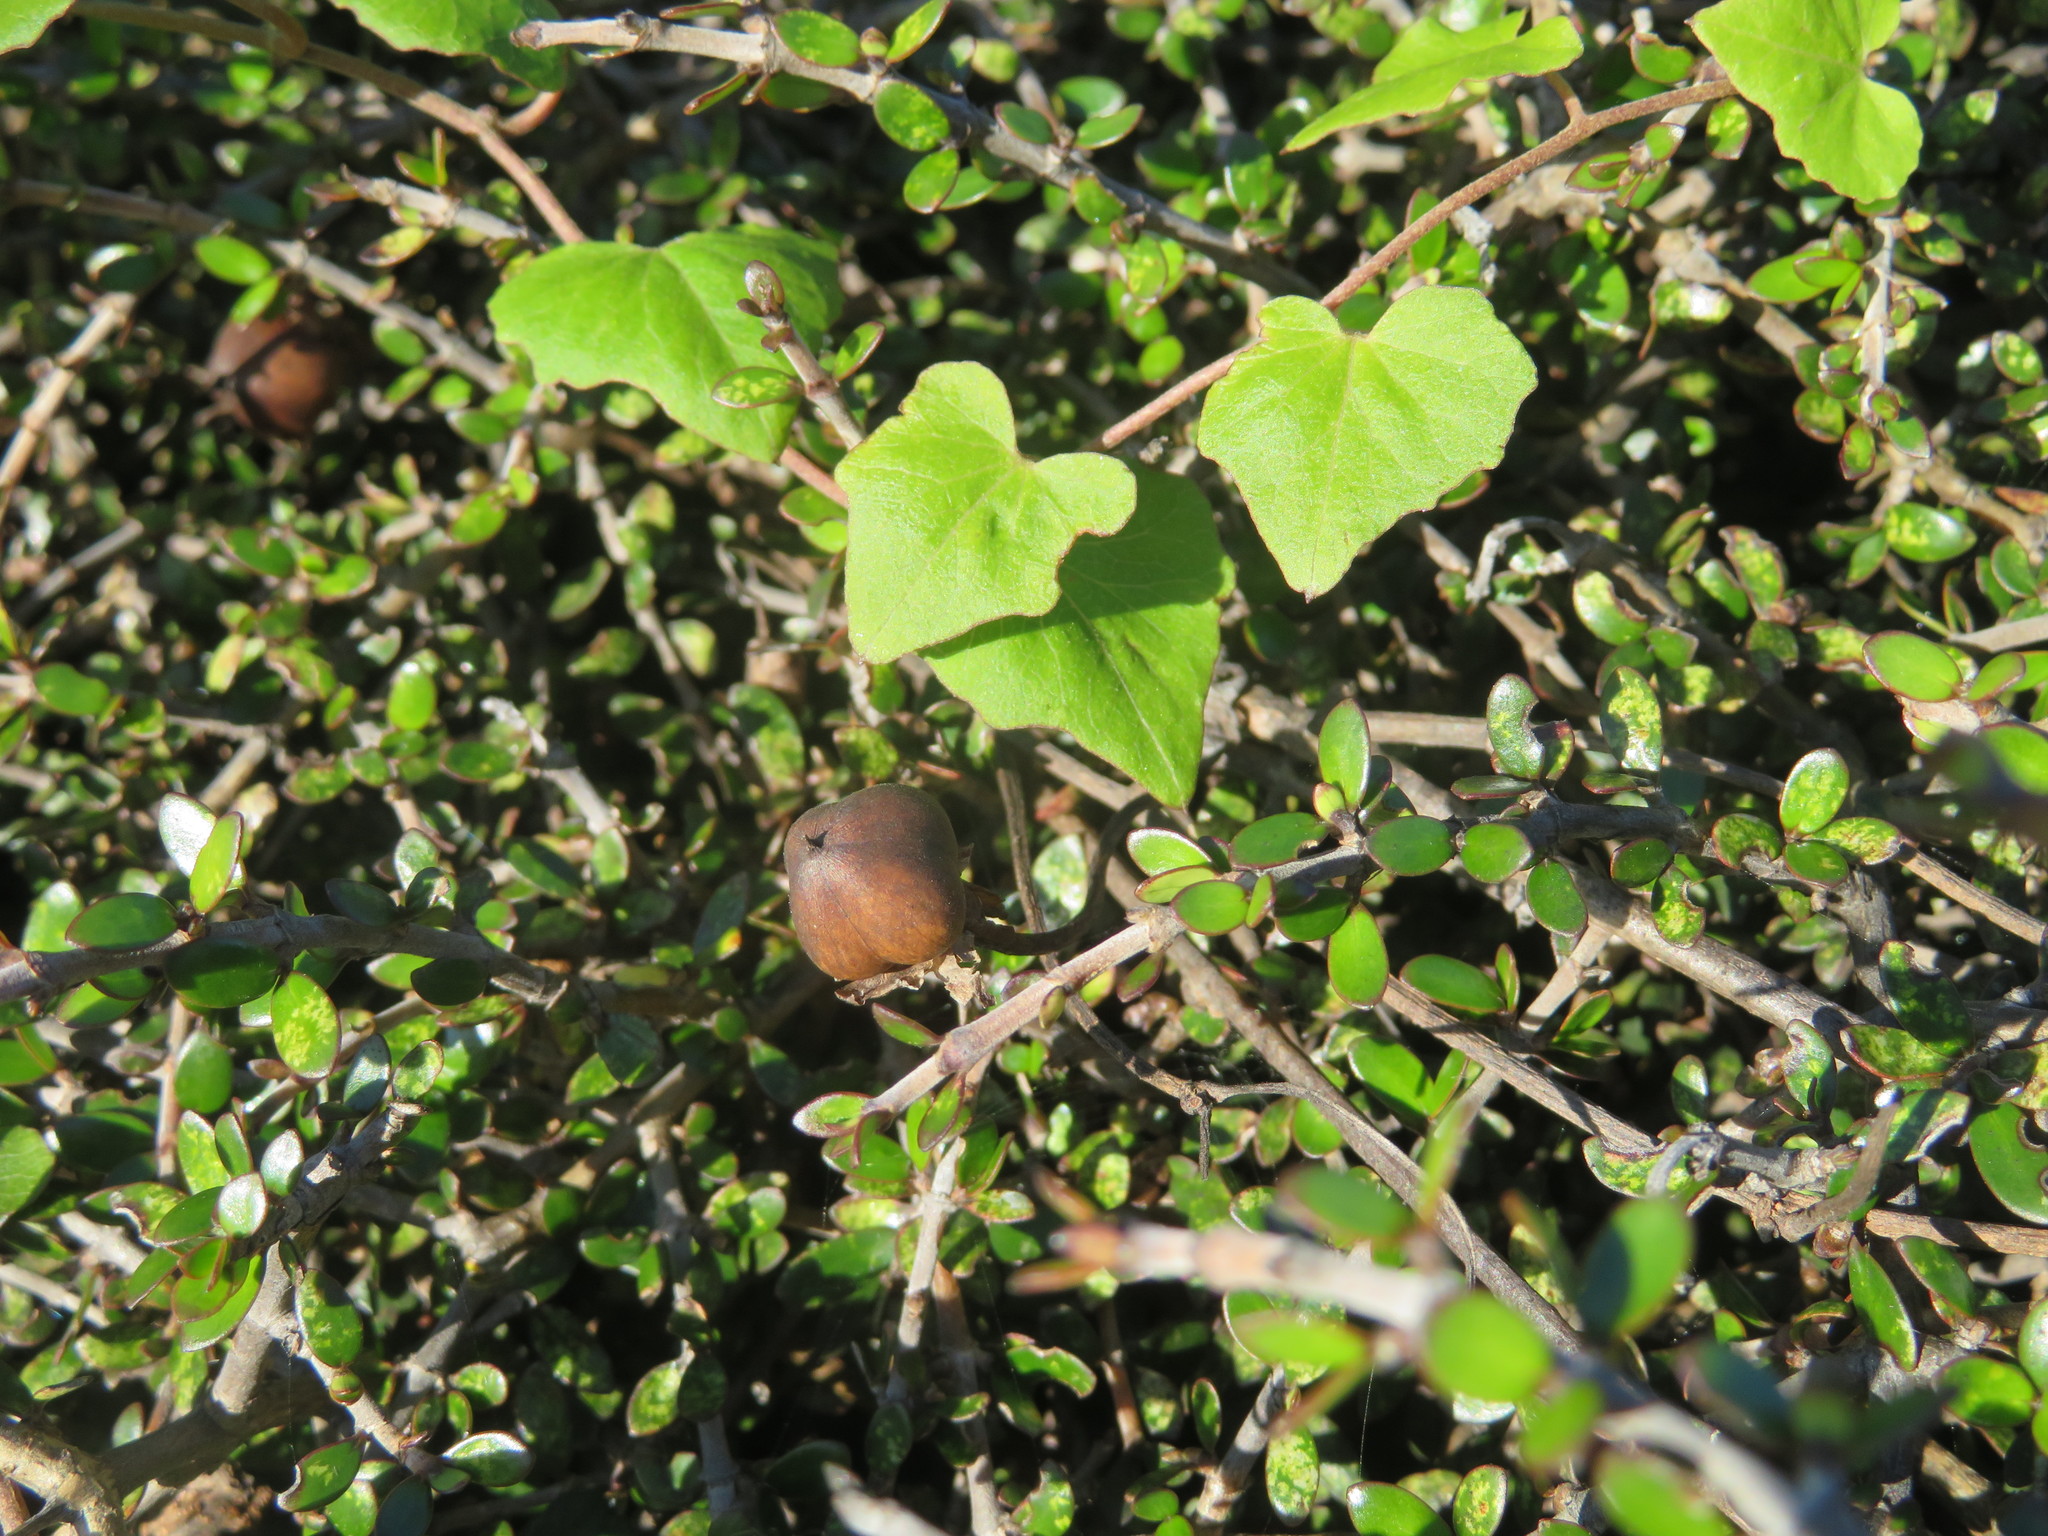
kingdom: Plantae
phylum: Tracheophyta
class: Magnoliopsida
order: Solanales
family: Convolvulaceae
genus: Calystegia
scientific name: Calystegia tuguriorum
